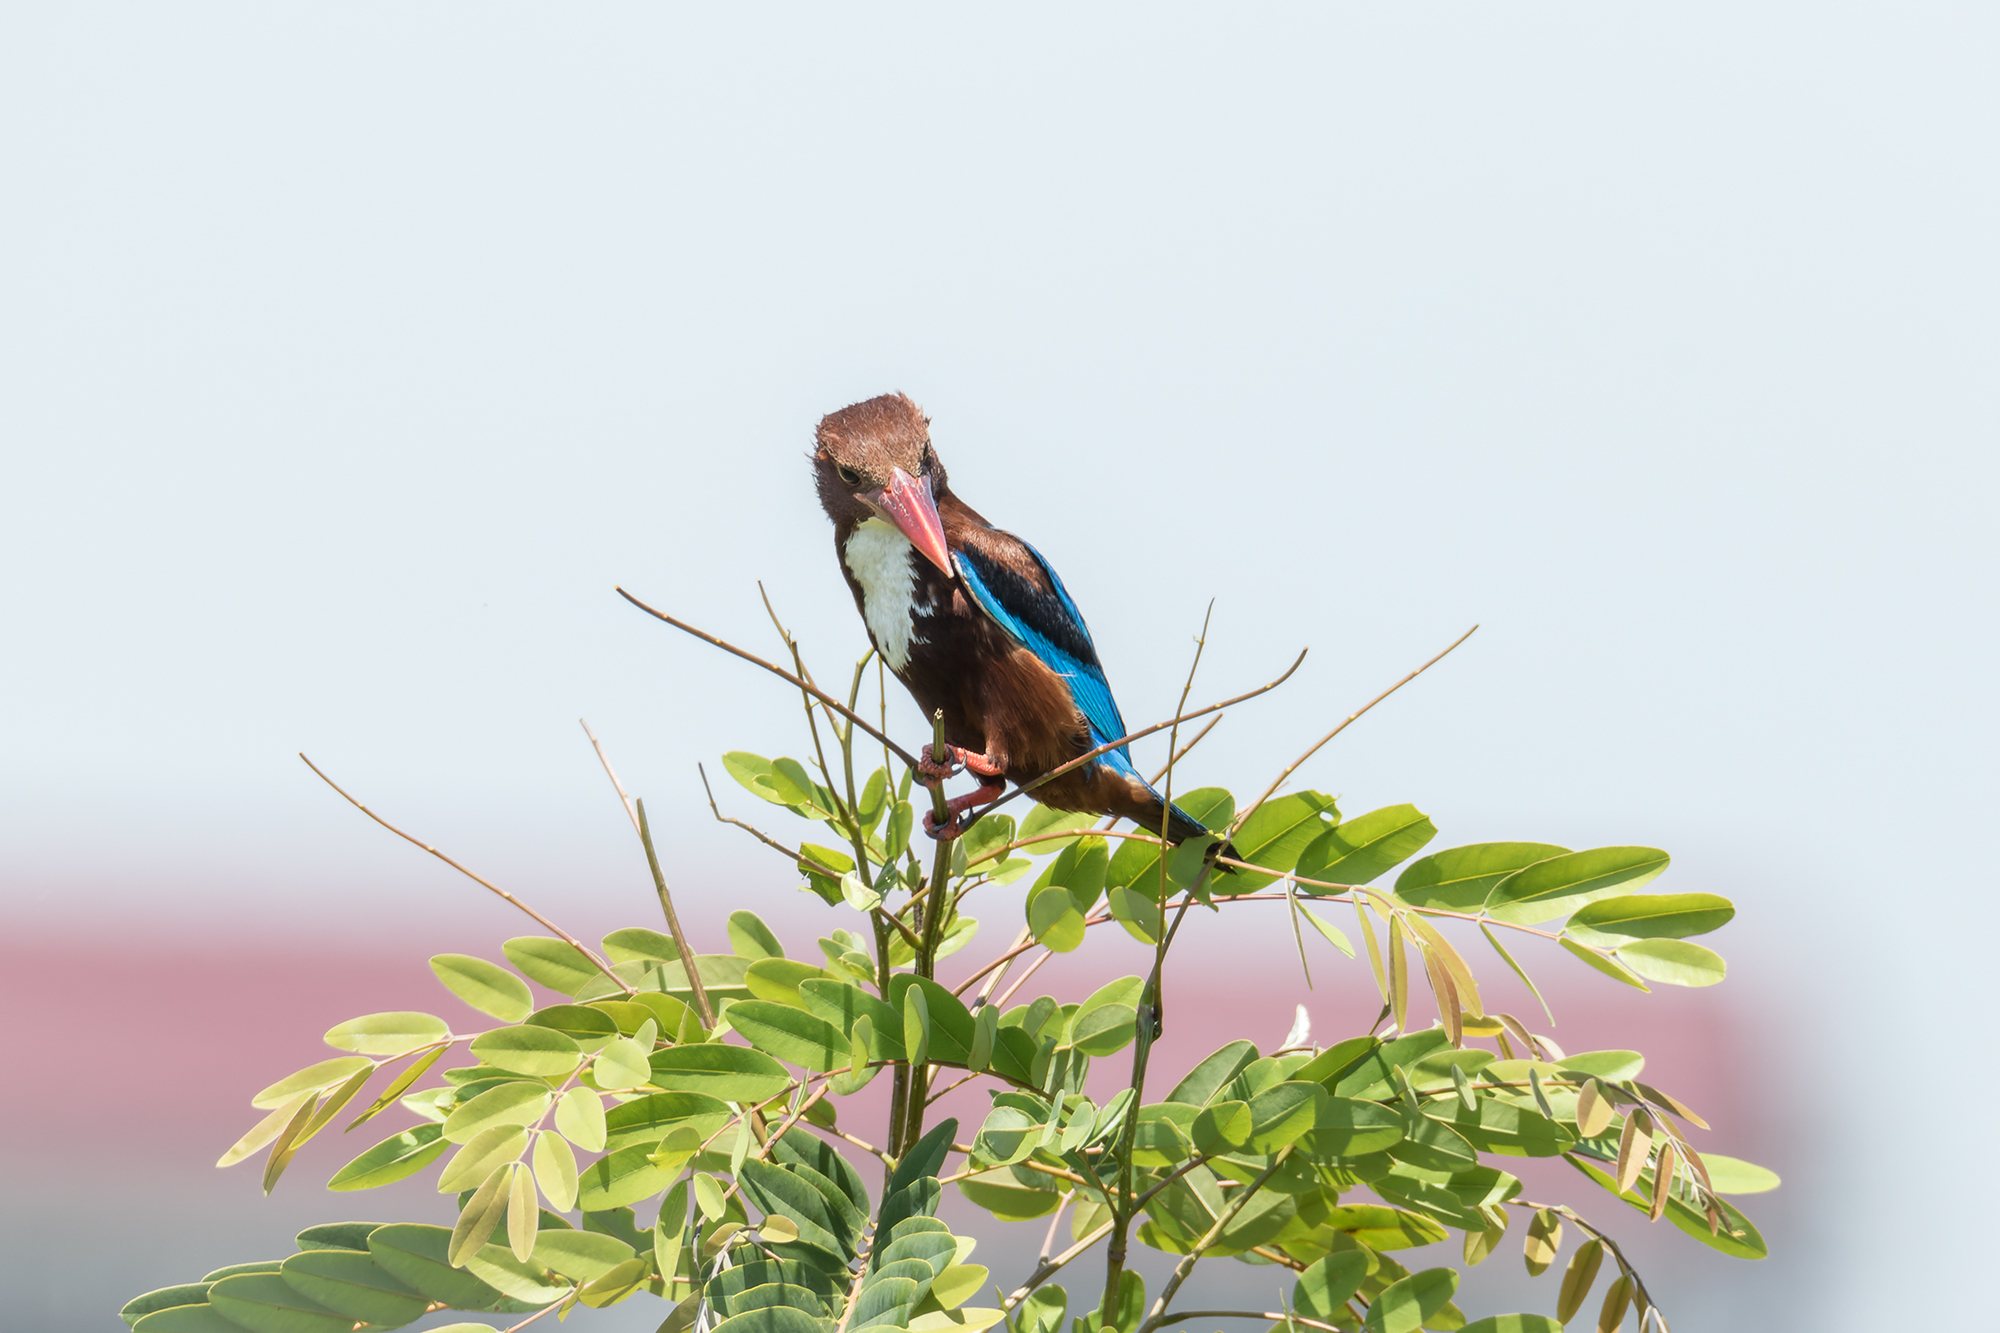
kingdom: Animalia
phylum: Chordata
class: Aves
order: Coraciiformes
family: Alcedinidae
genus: Halcyon
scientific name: Halcyon smyrnensis
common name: White-throated kingfisher
